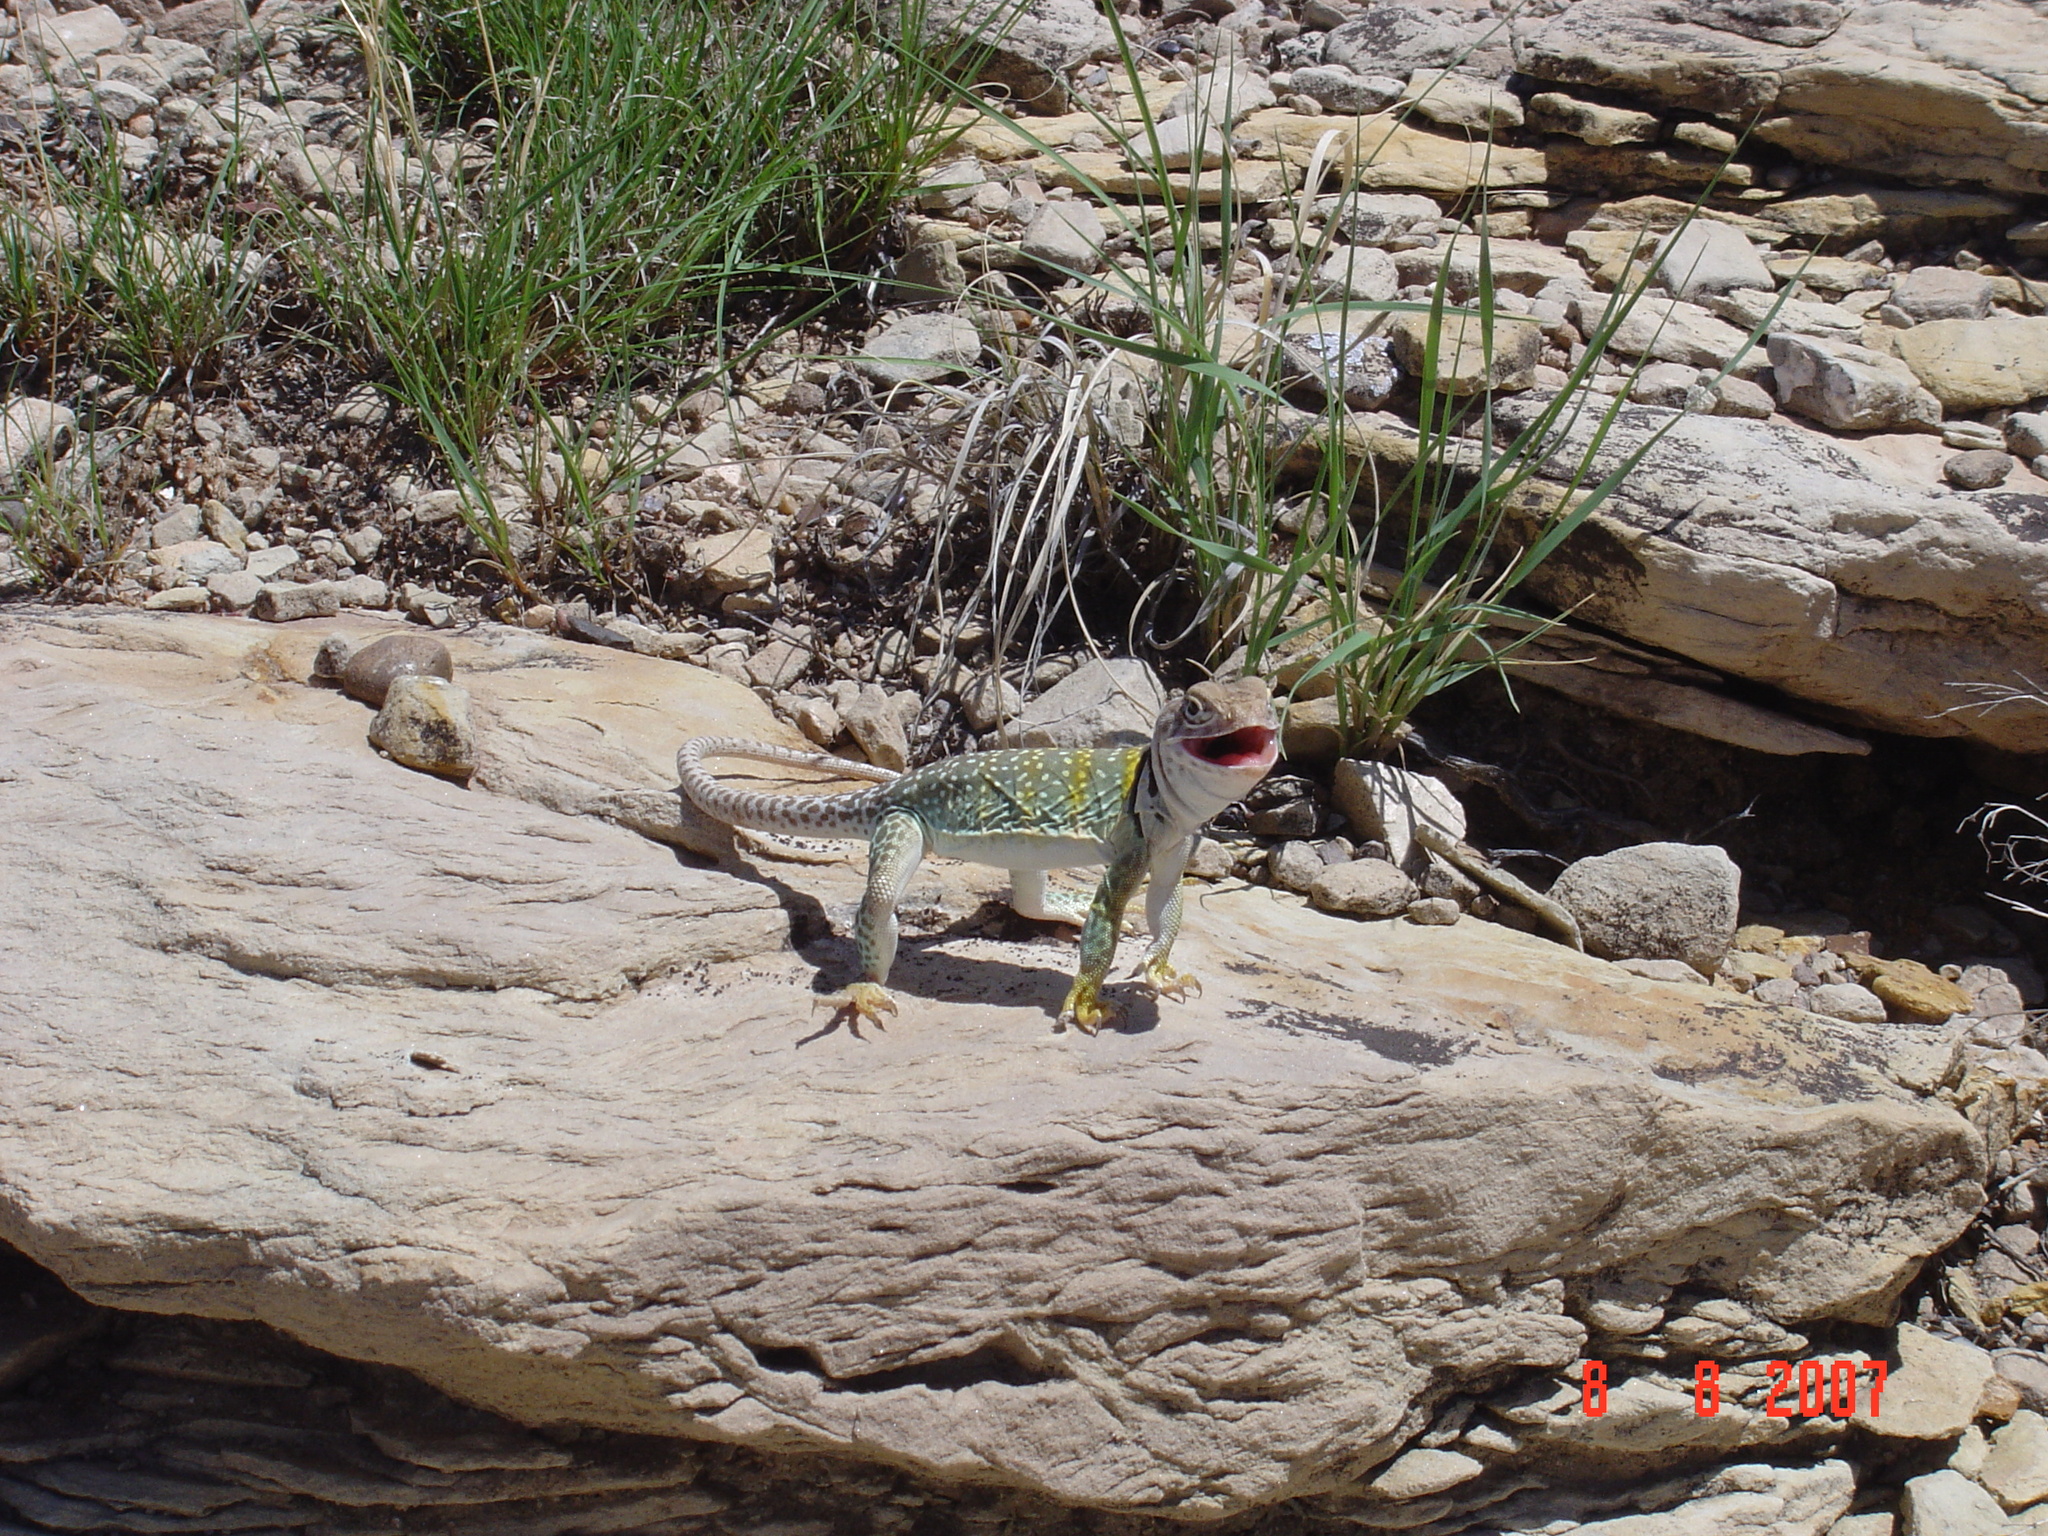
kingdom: Animalia
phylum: Chordata
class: Squamata
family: Crotaphytidae
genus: Crotaphytus
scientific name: Crotaphytus collaris
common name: Collared lizard
